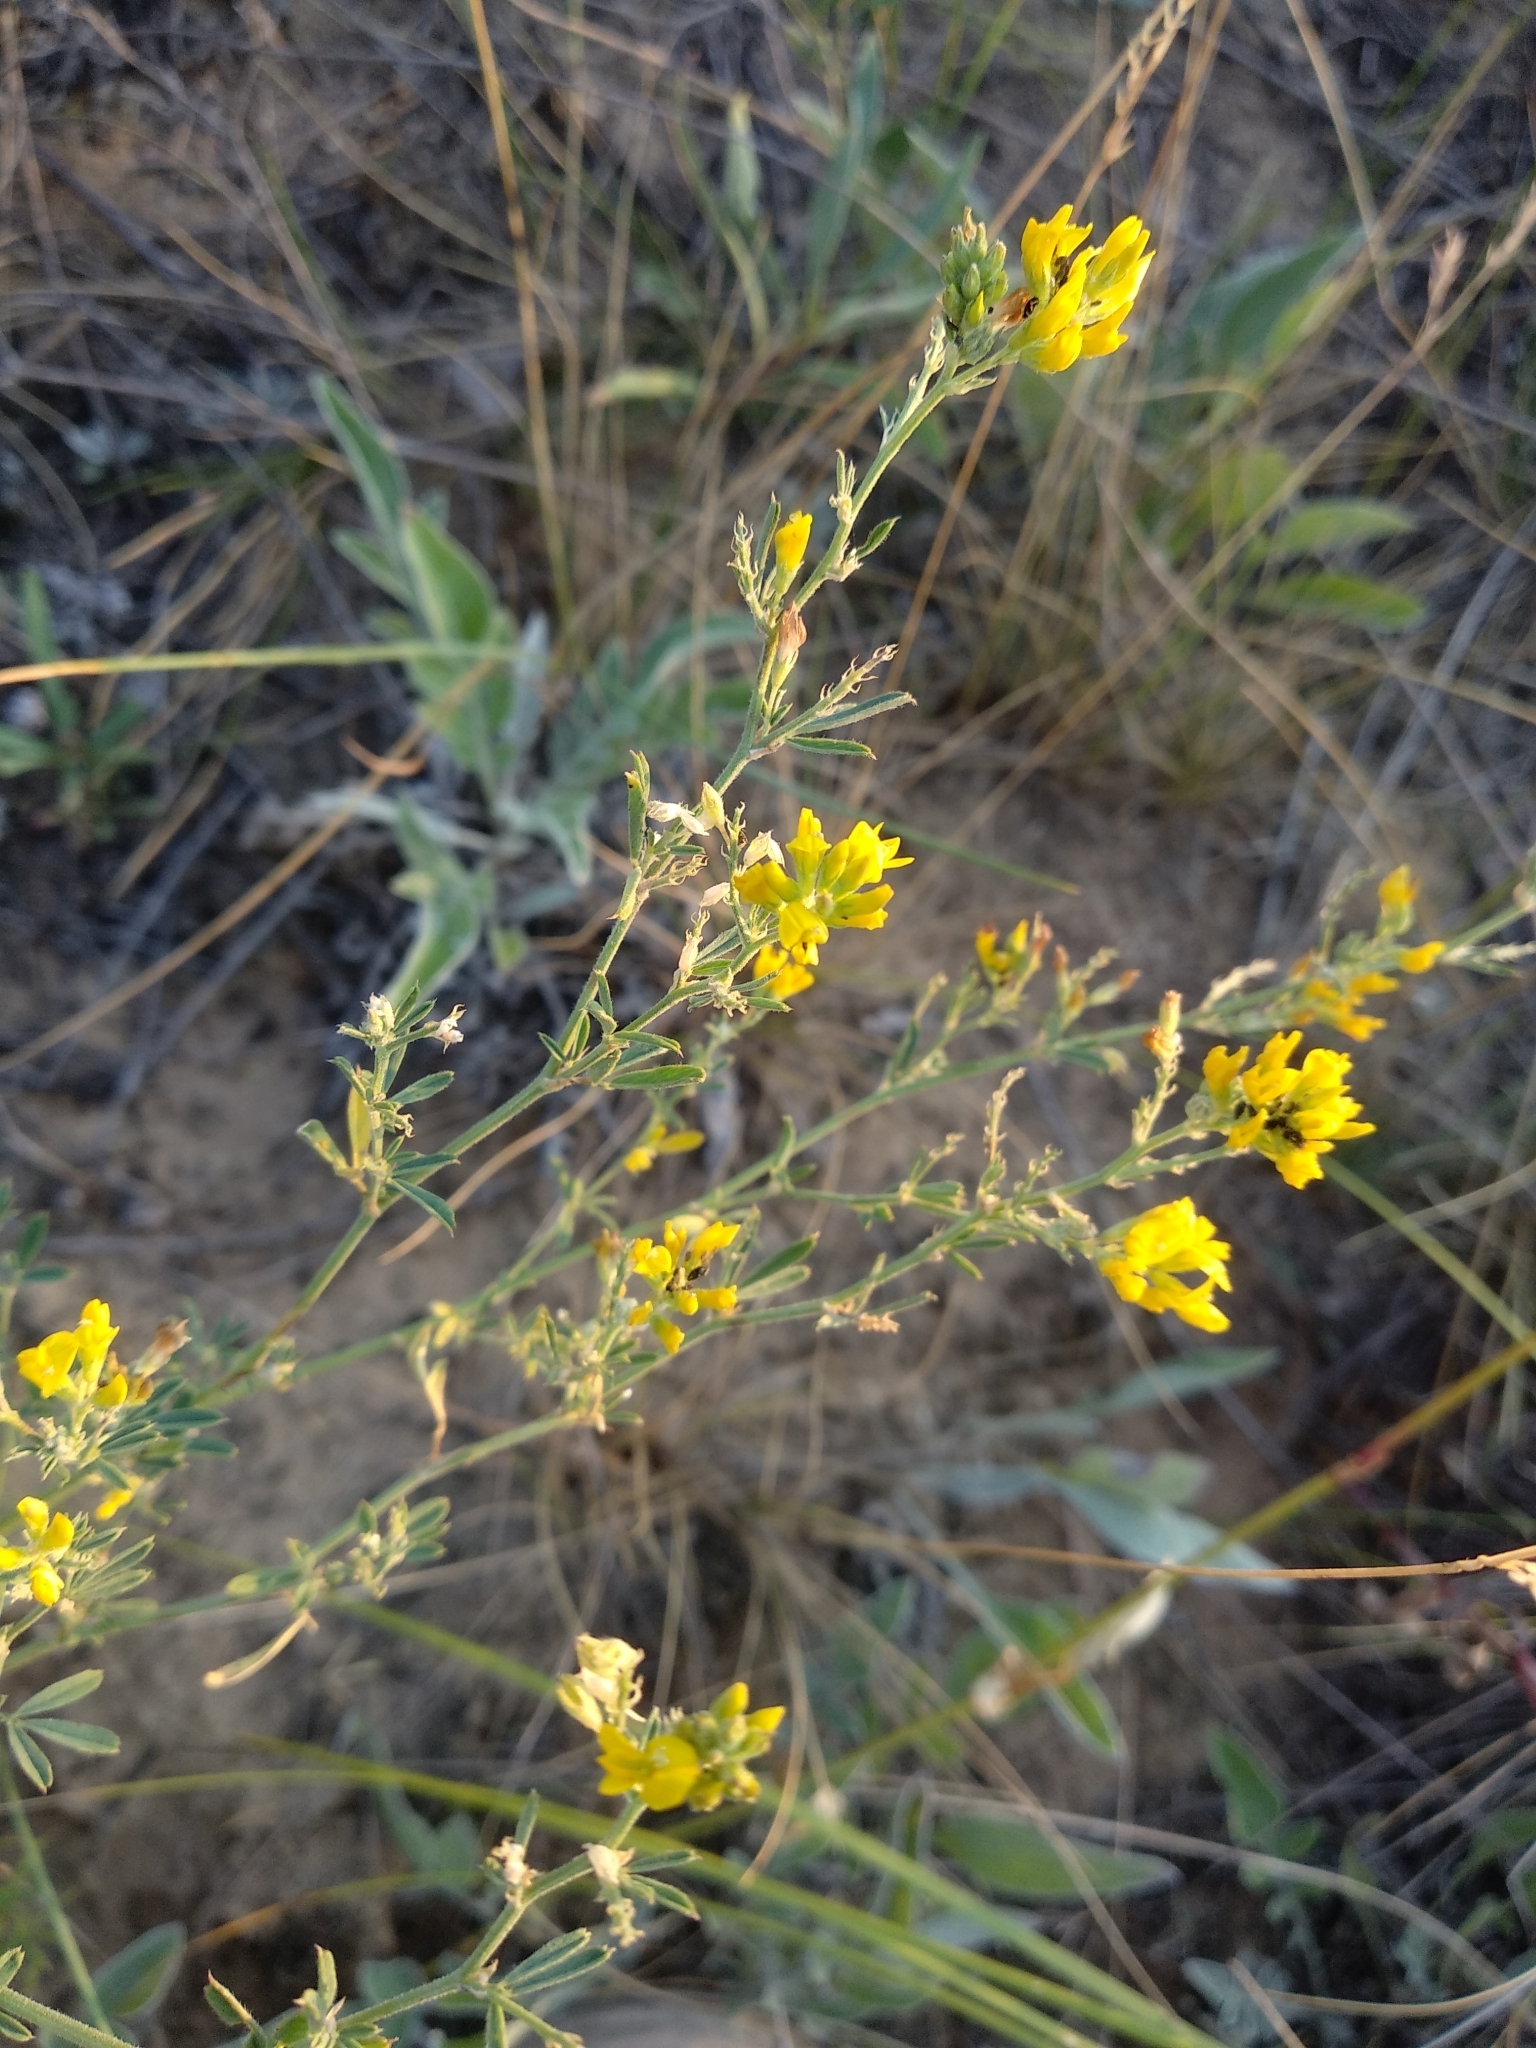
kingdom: Plantae
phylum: Tracheophyta
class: Magnoliopsida
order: Fabales
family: Fabaceae
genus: Medicago
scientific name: Medicago falcata
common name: Sickle medick
